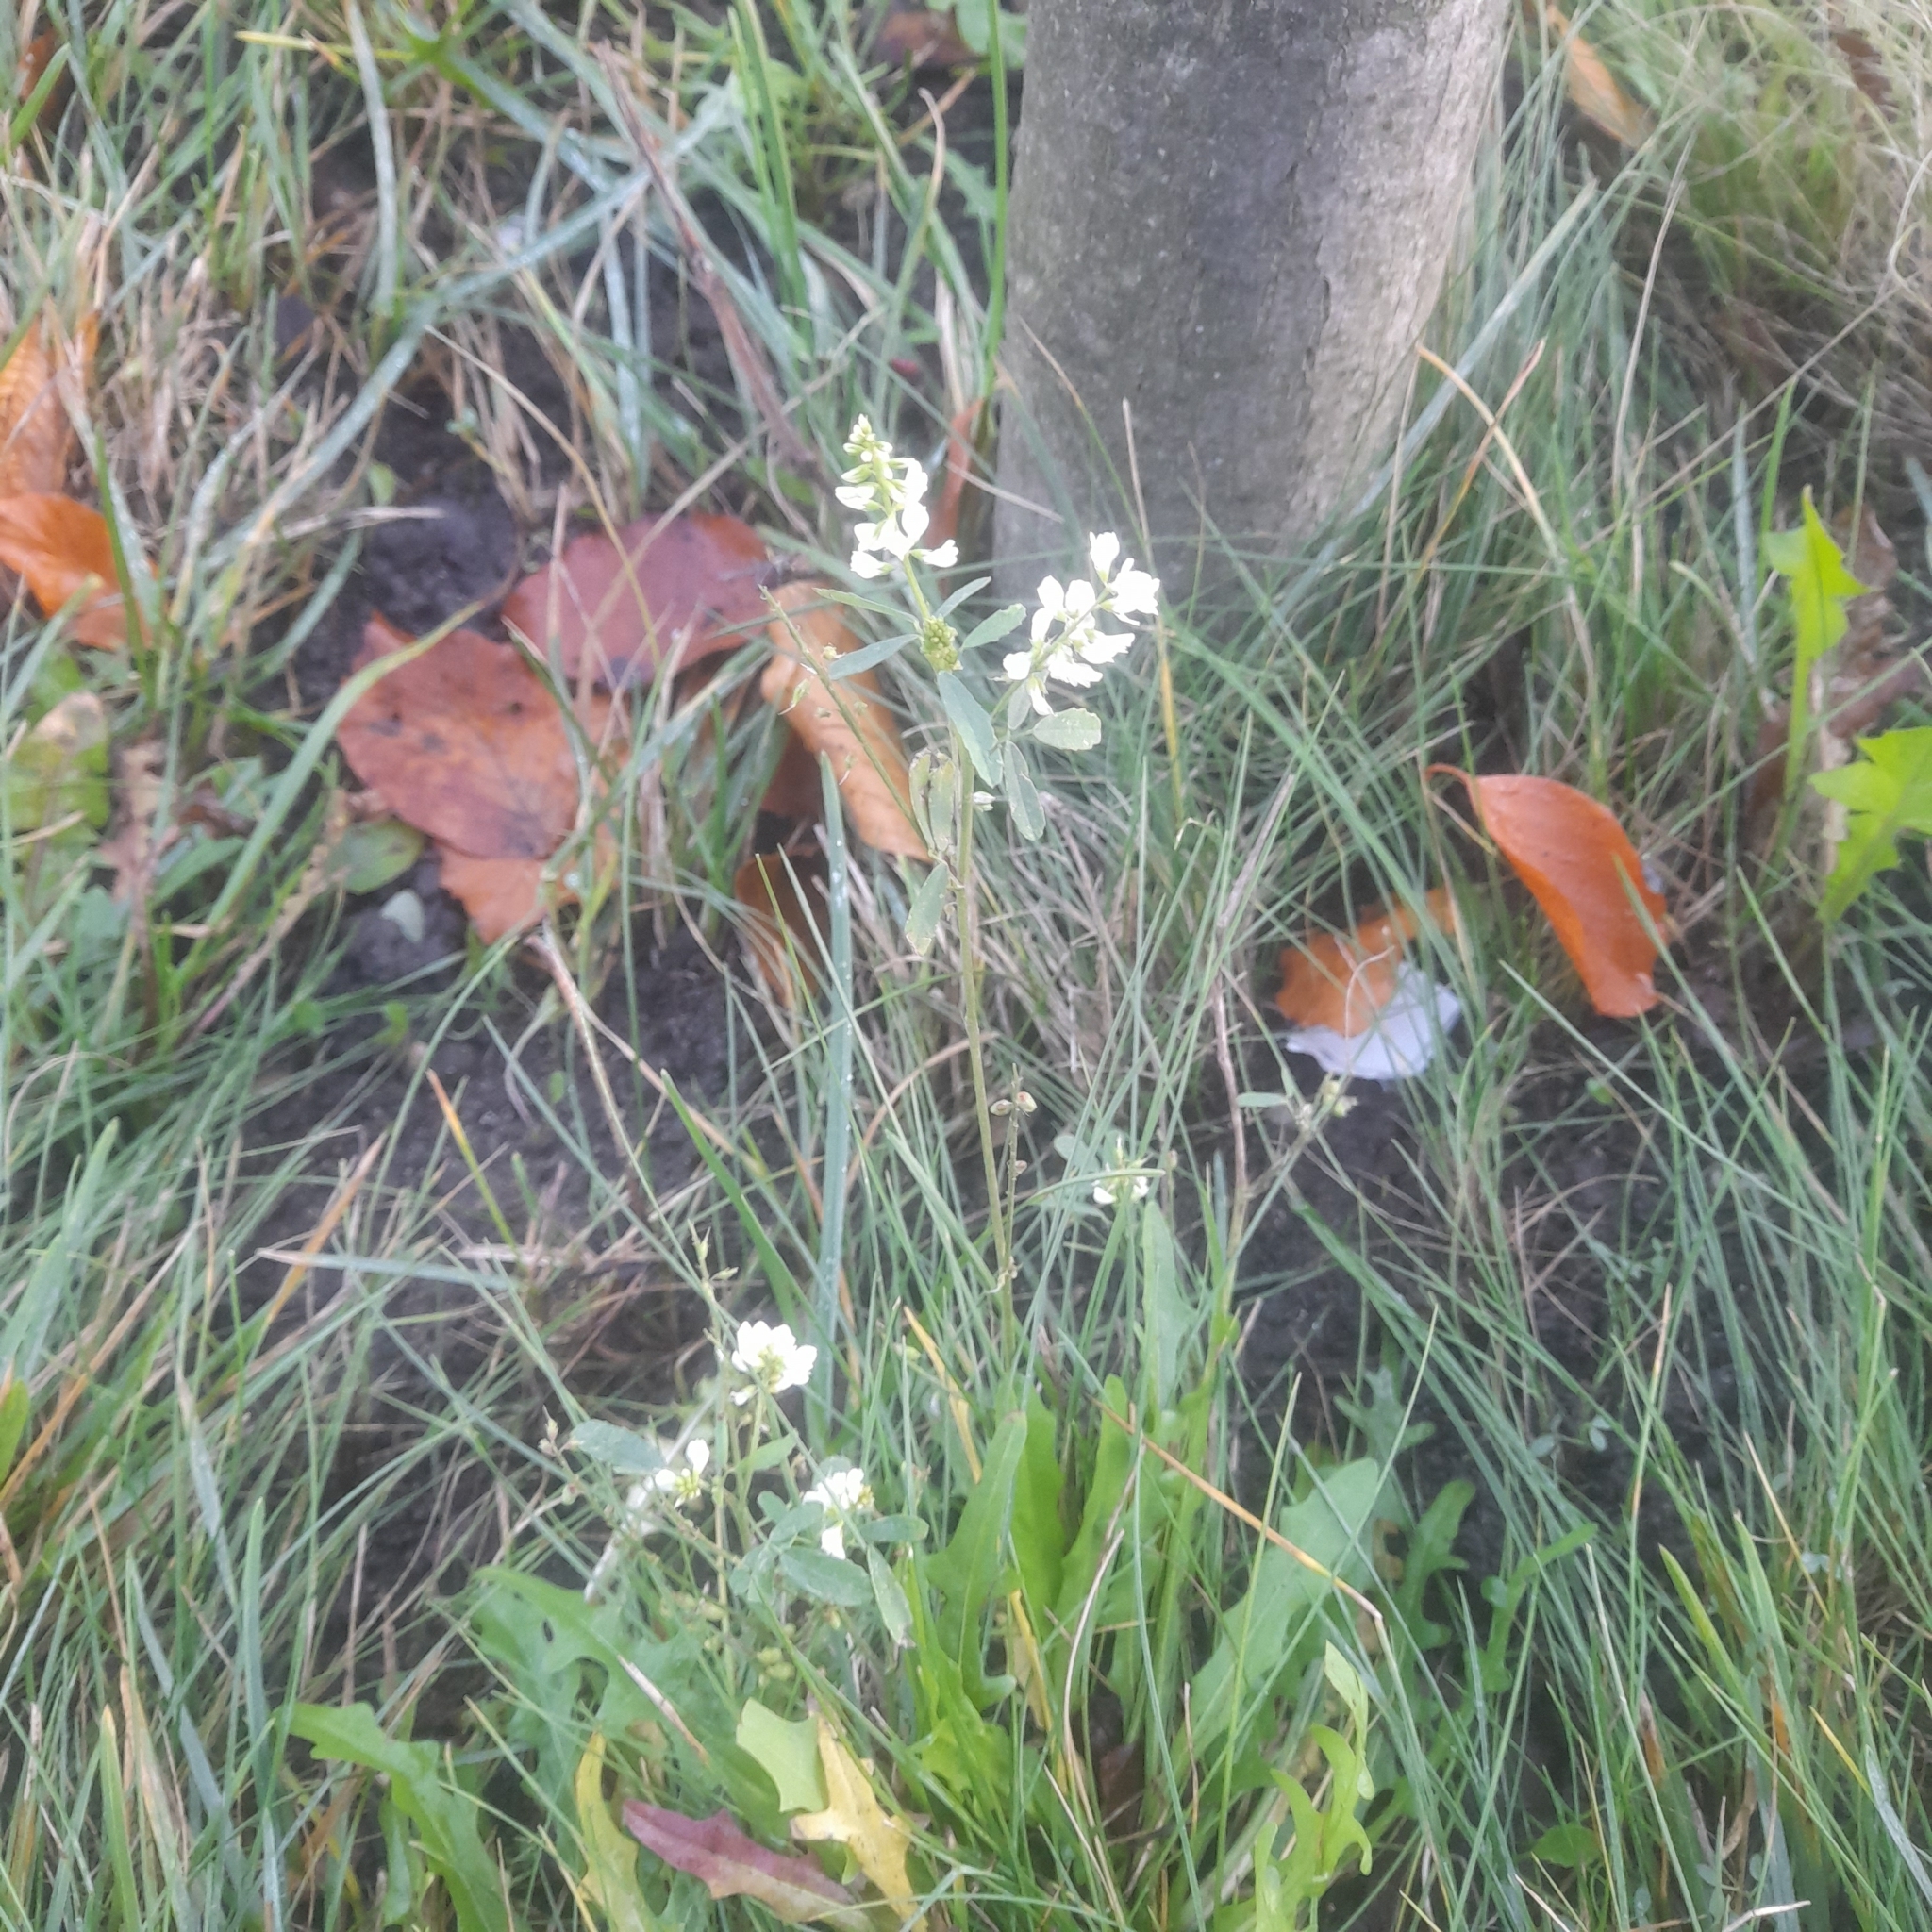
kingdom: Plantae
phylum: Tracheophyta
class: Magnoliopsida
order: Fabales
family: Fabaceae
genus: Melilotus
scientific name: Melilotus albus
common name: White melilot
